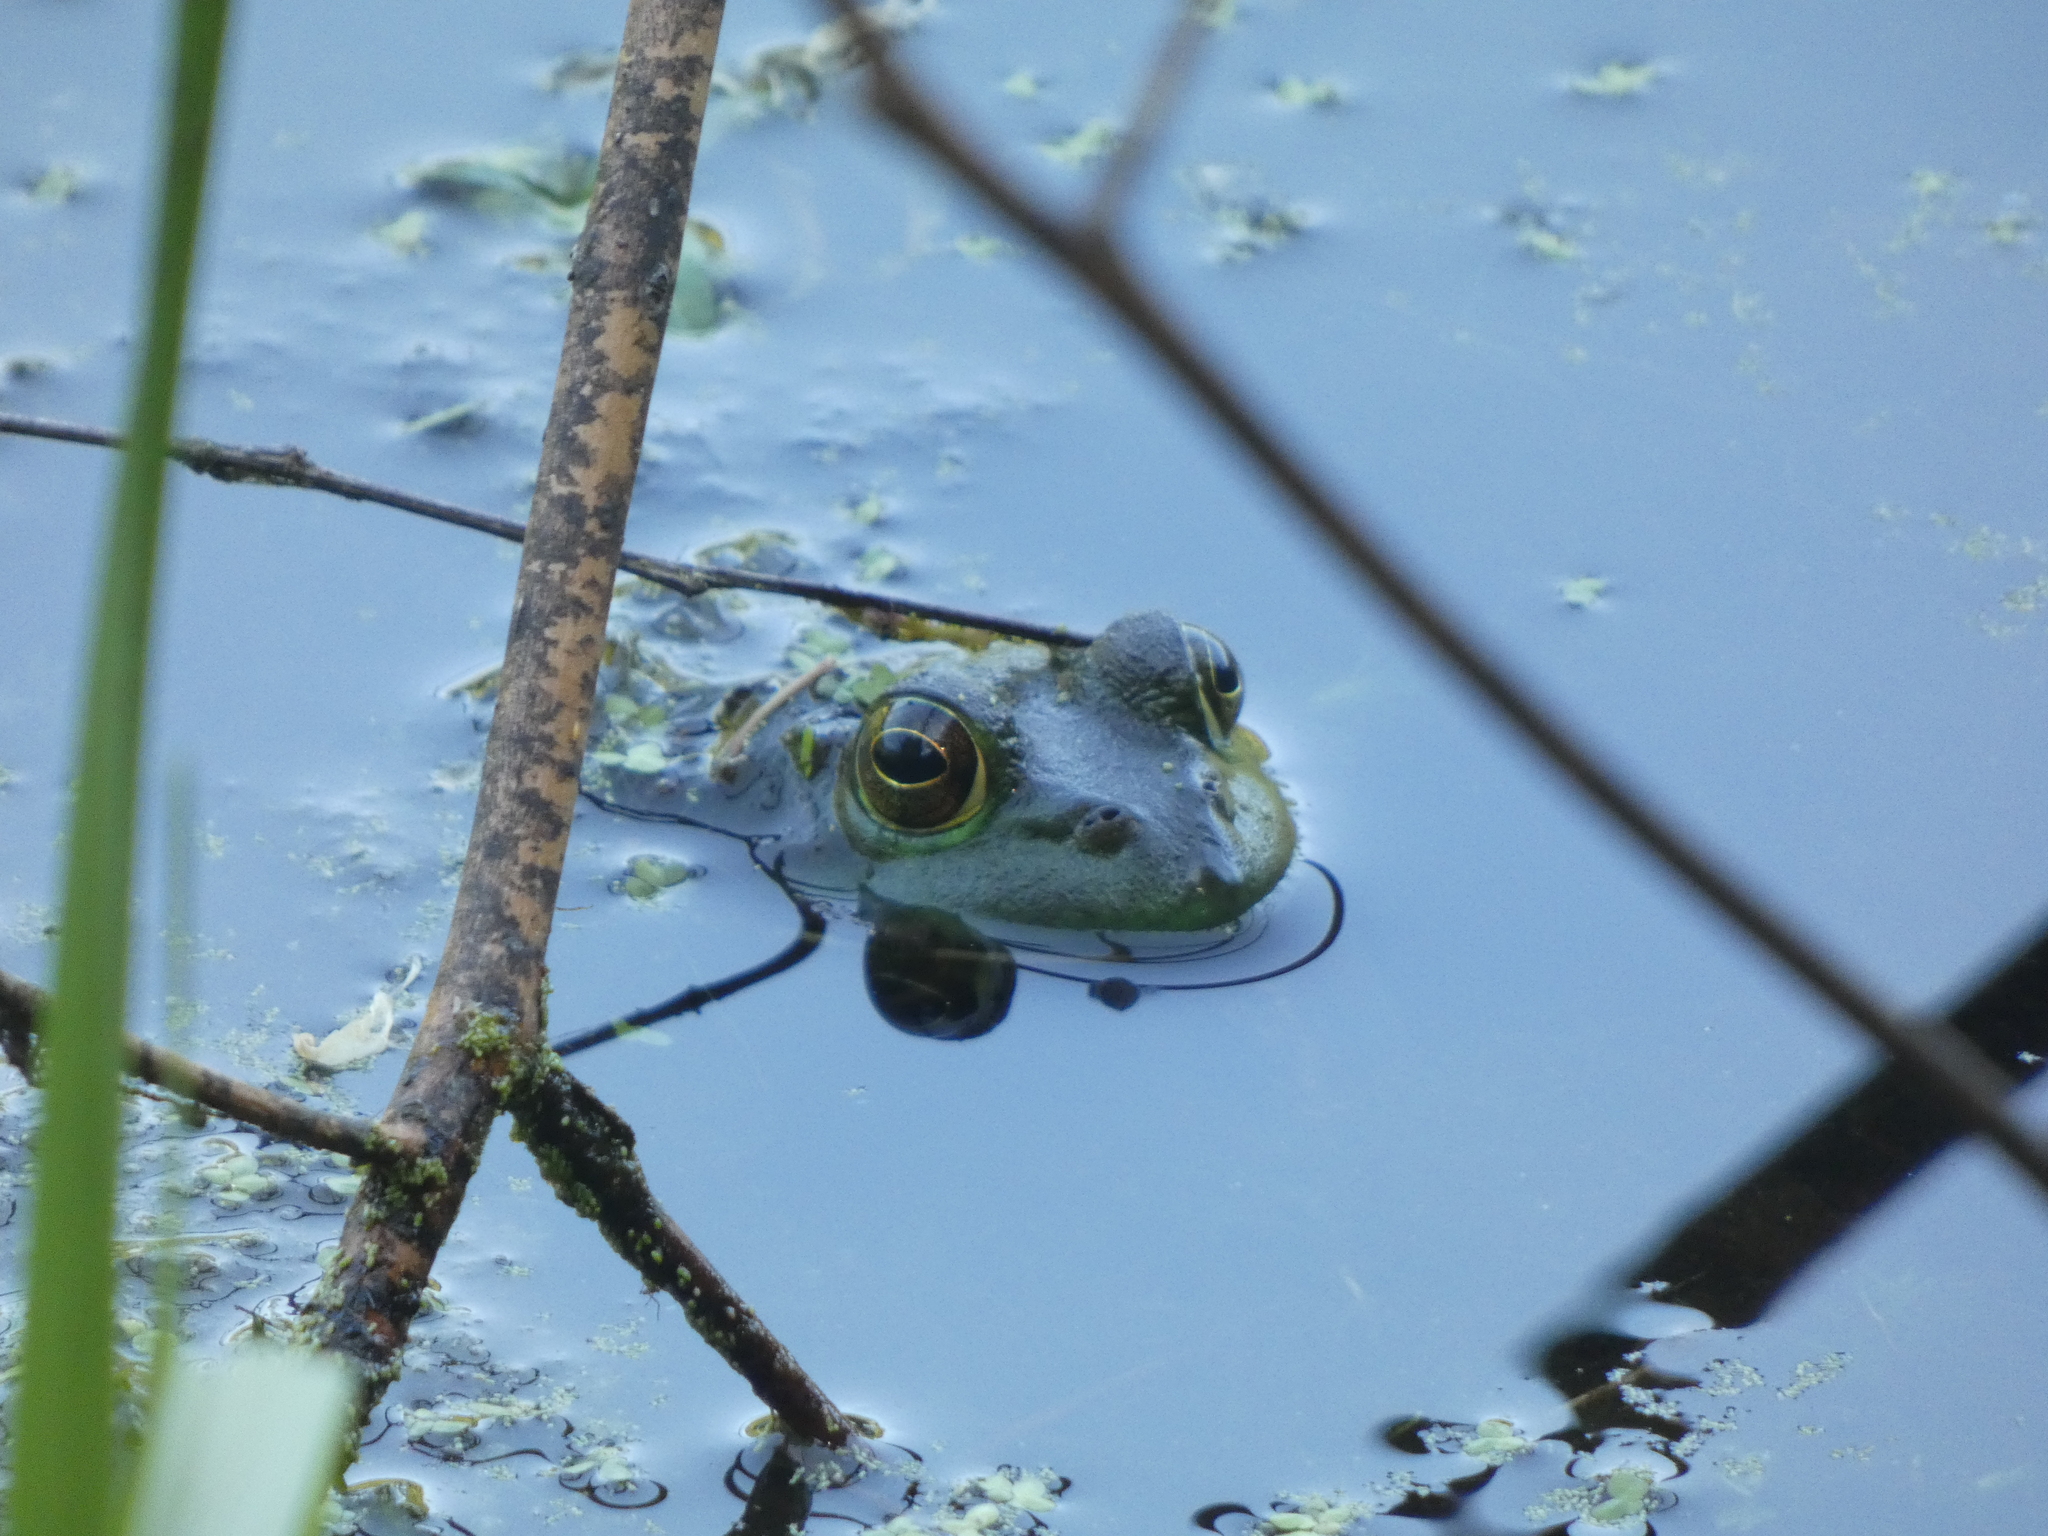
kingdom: Animalia
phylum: Chordata
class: Amphibia
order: Anura
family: Ranidae
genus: Lithobates
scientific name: Lithobates catesbeianus
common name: American bullfrog
